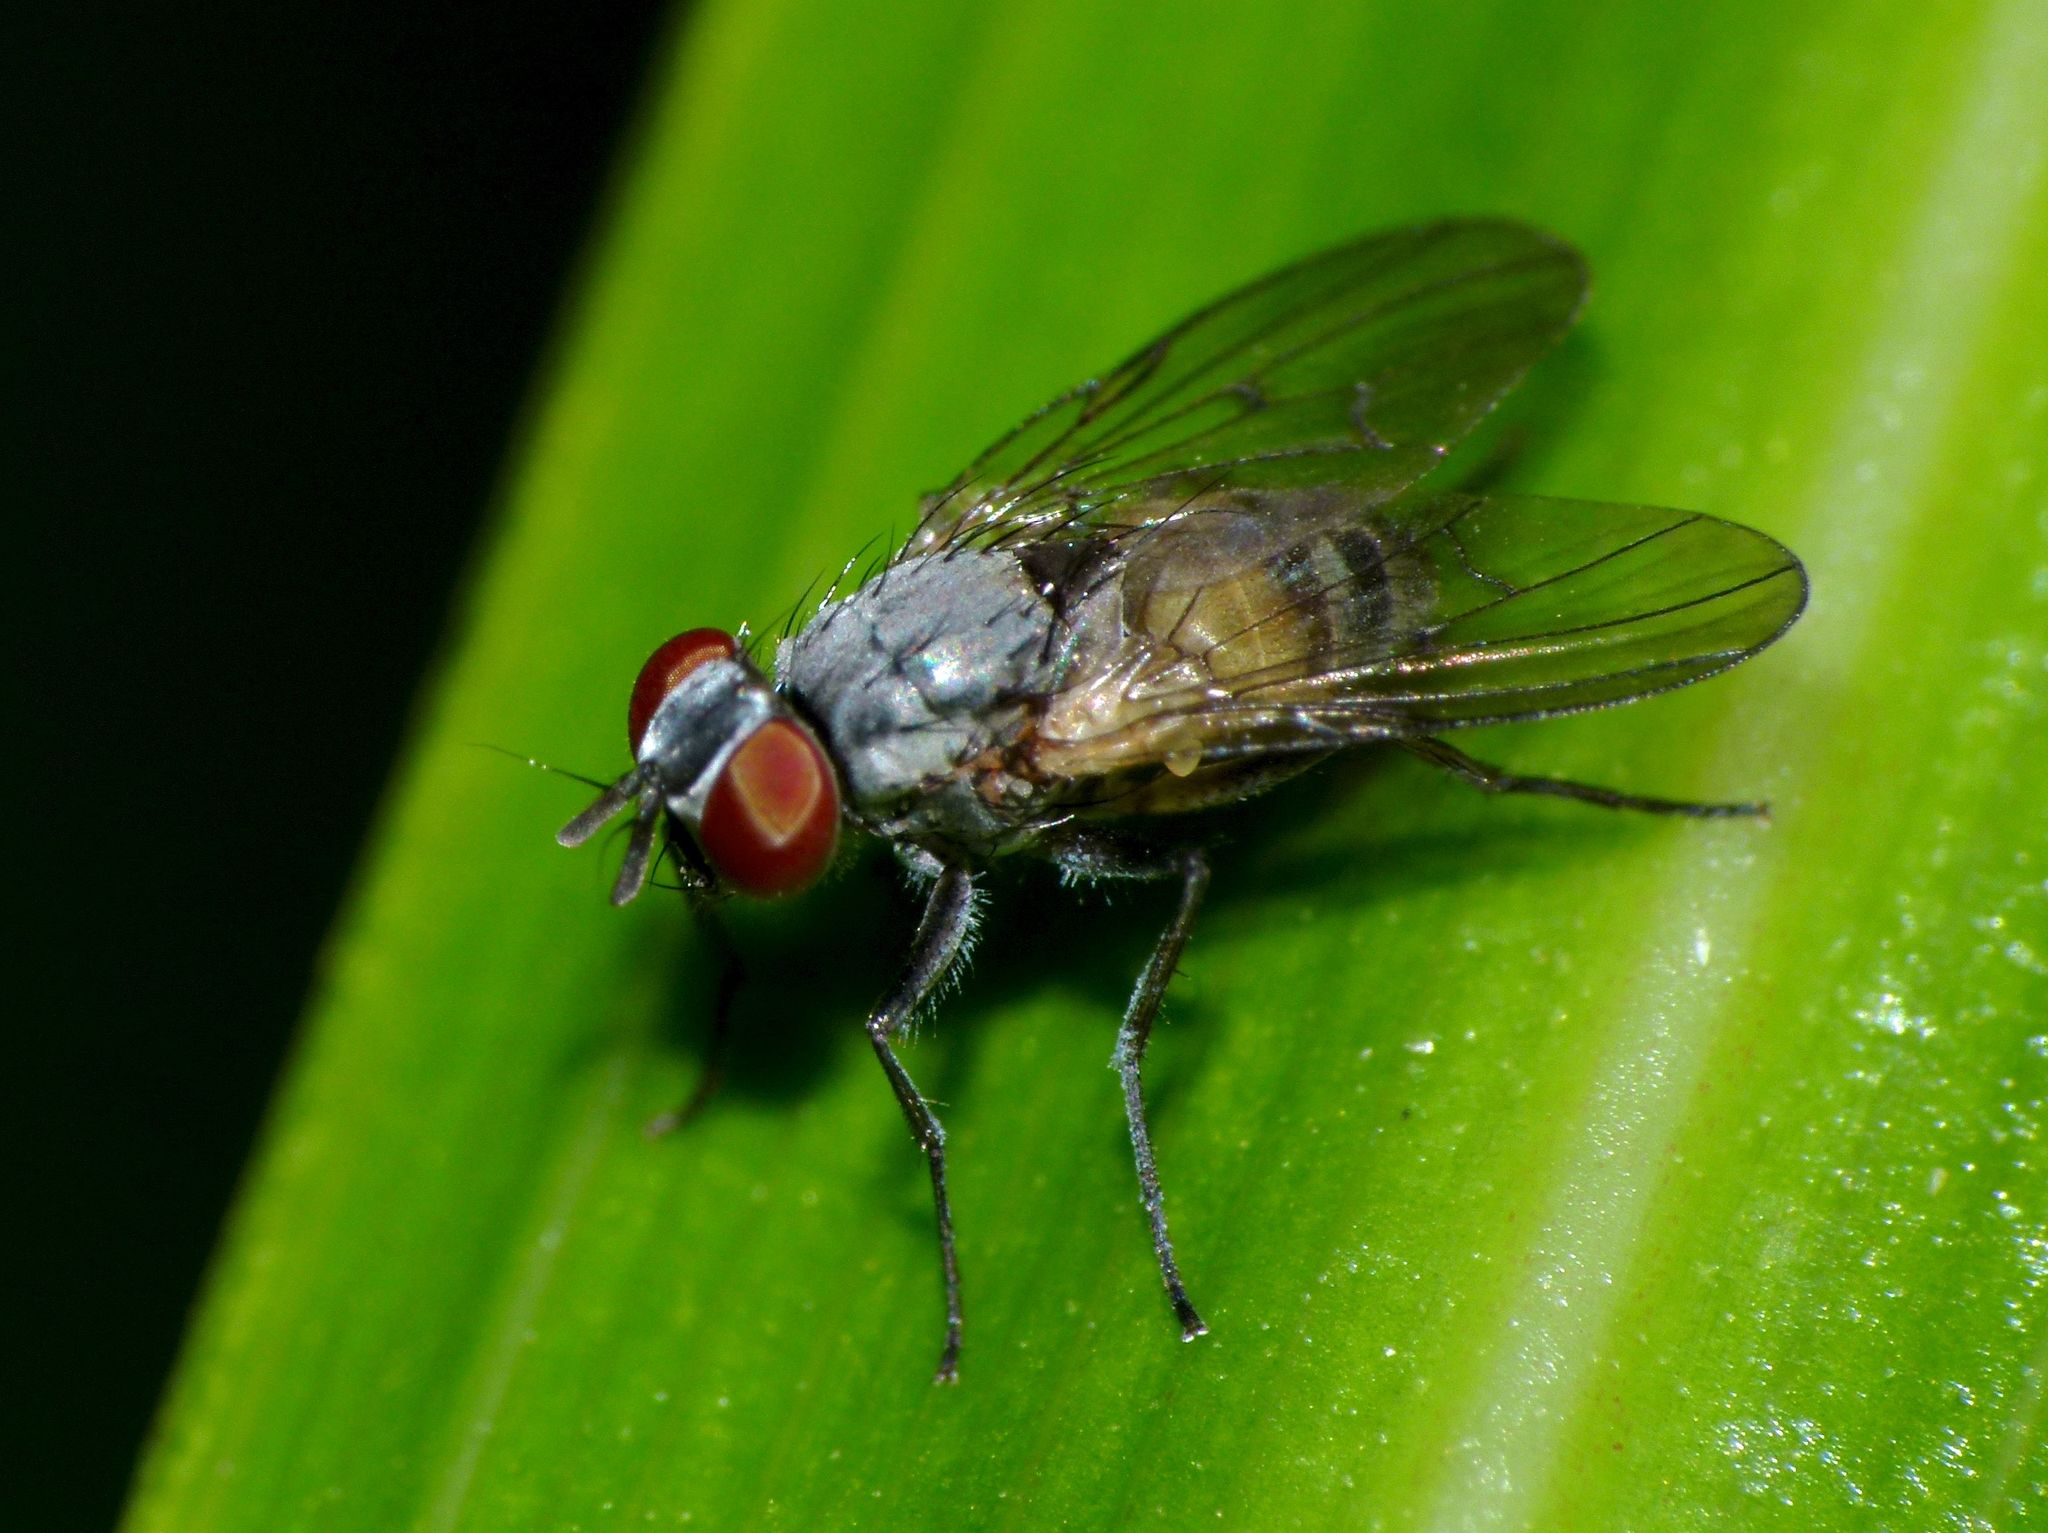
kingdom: Animalia
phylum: Arthropoda
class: Insecta
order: Diptera
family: Muscidae
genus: Spilogona
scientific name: Spilogona flaviventris
